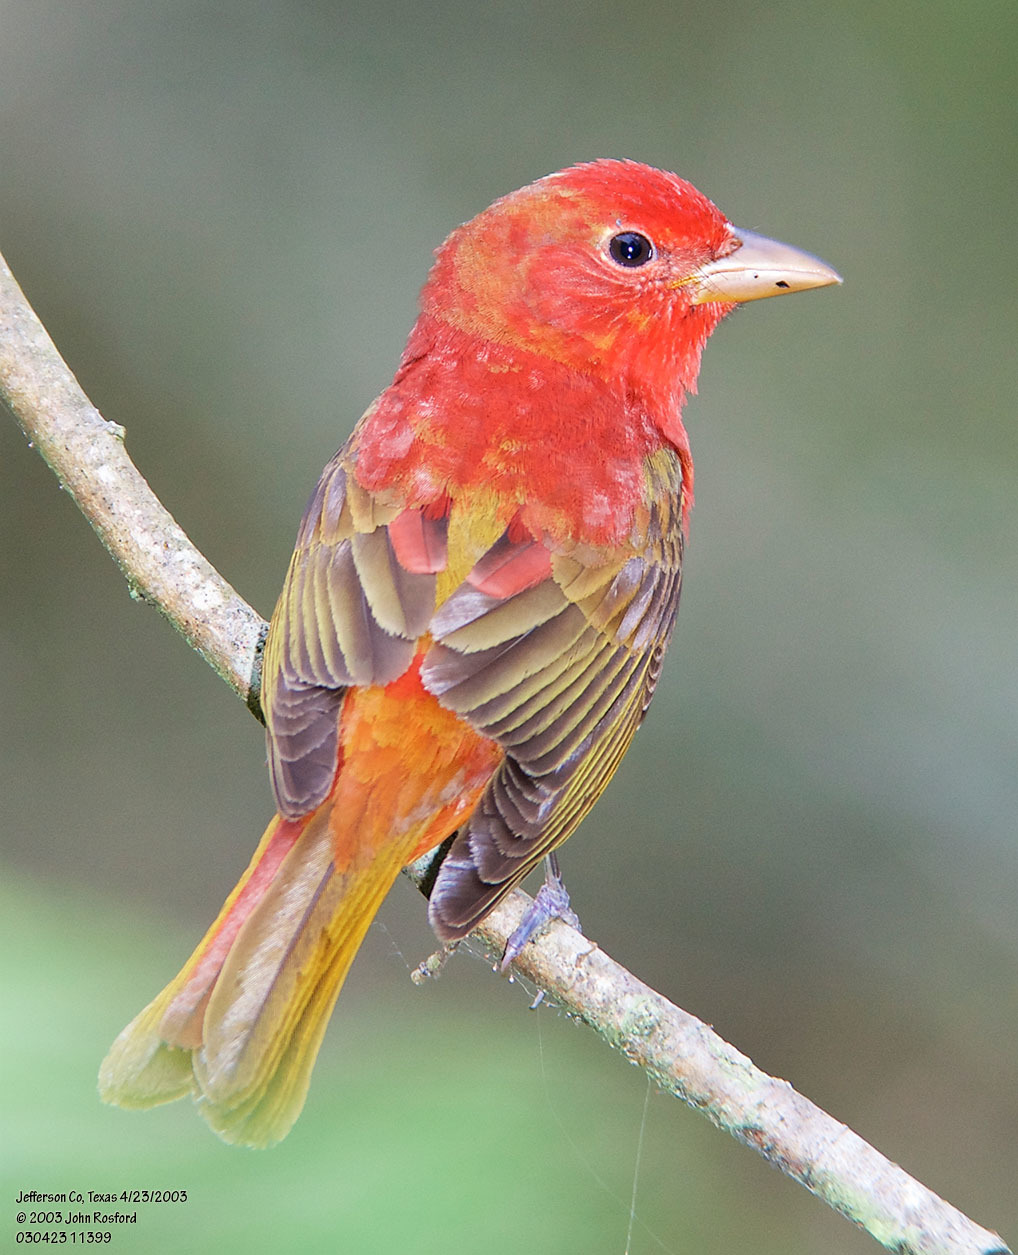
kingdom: Animalia
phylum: Chordata
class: Aves
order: Passeriformes
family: Cardinalidae
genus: Piranga
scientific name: Piranga rubra
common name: Summer tanager
